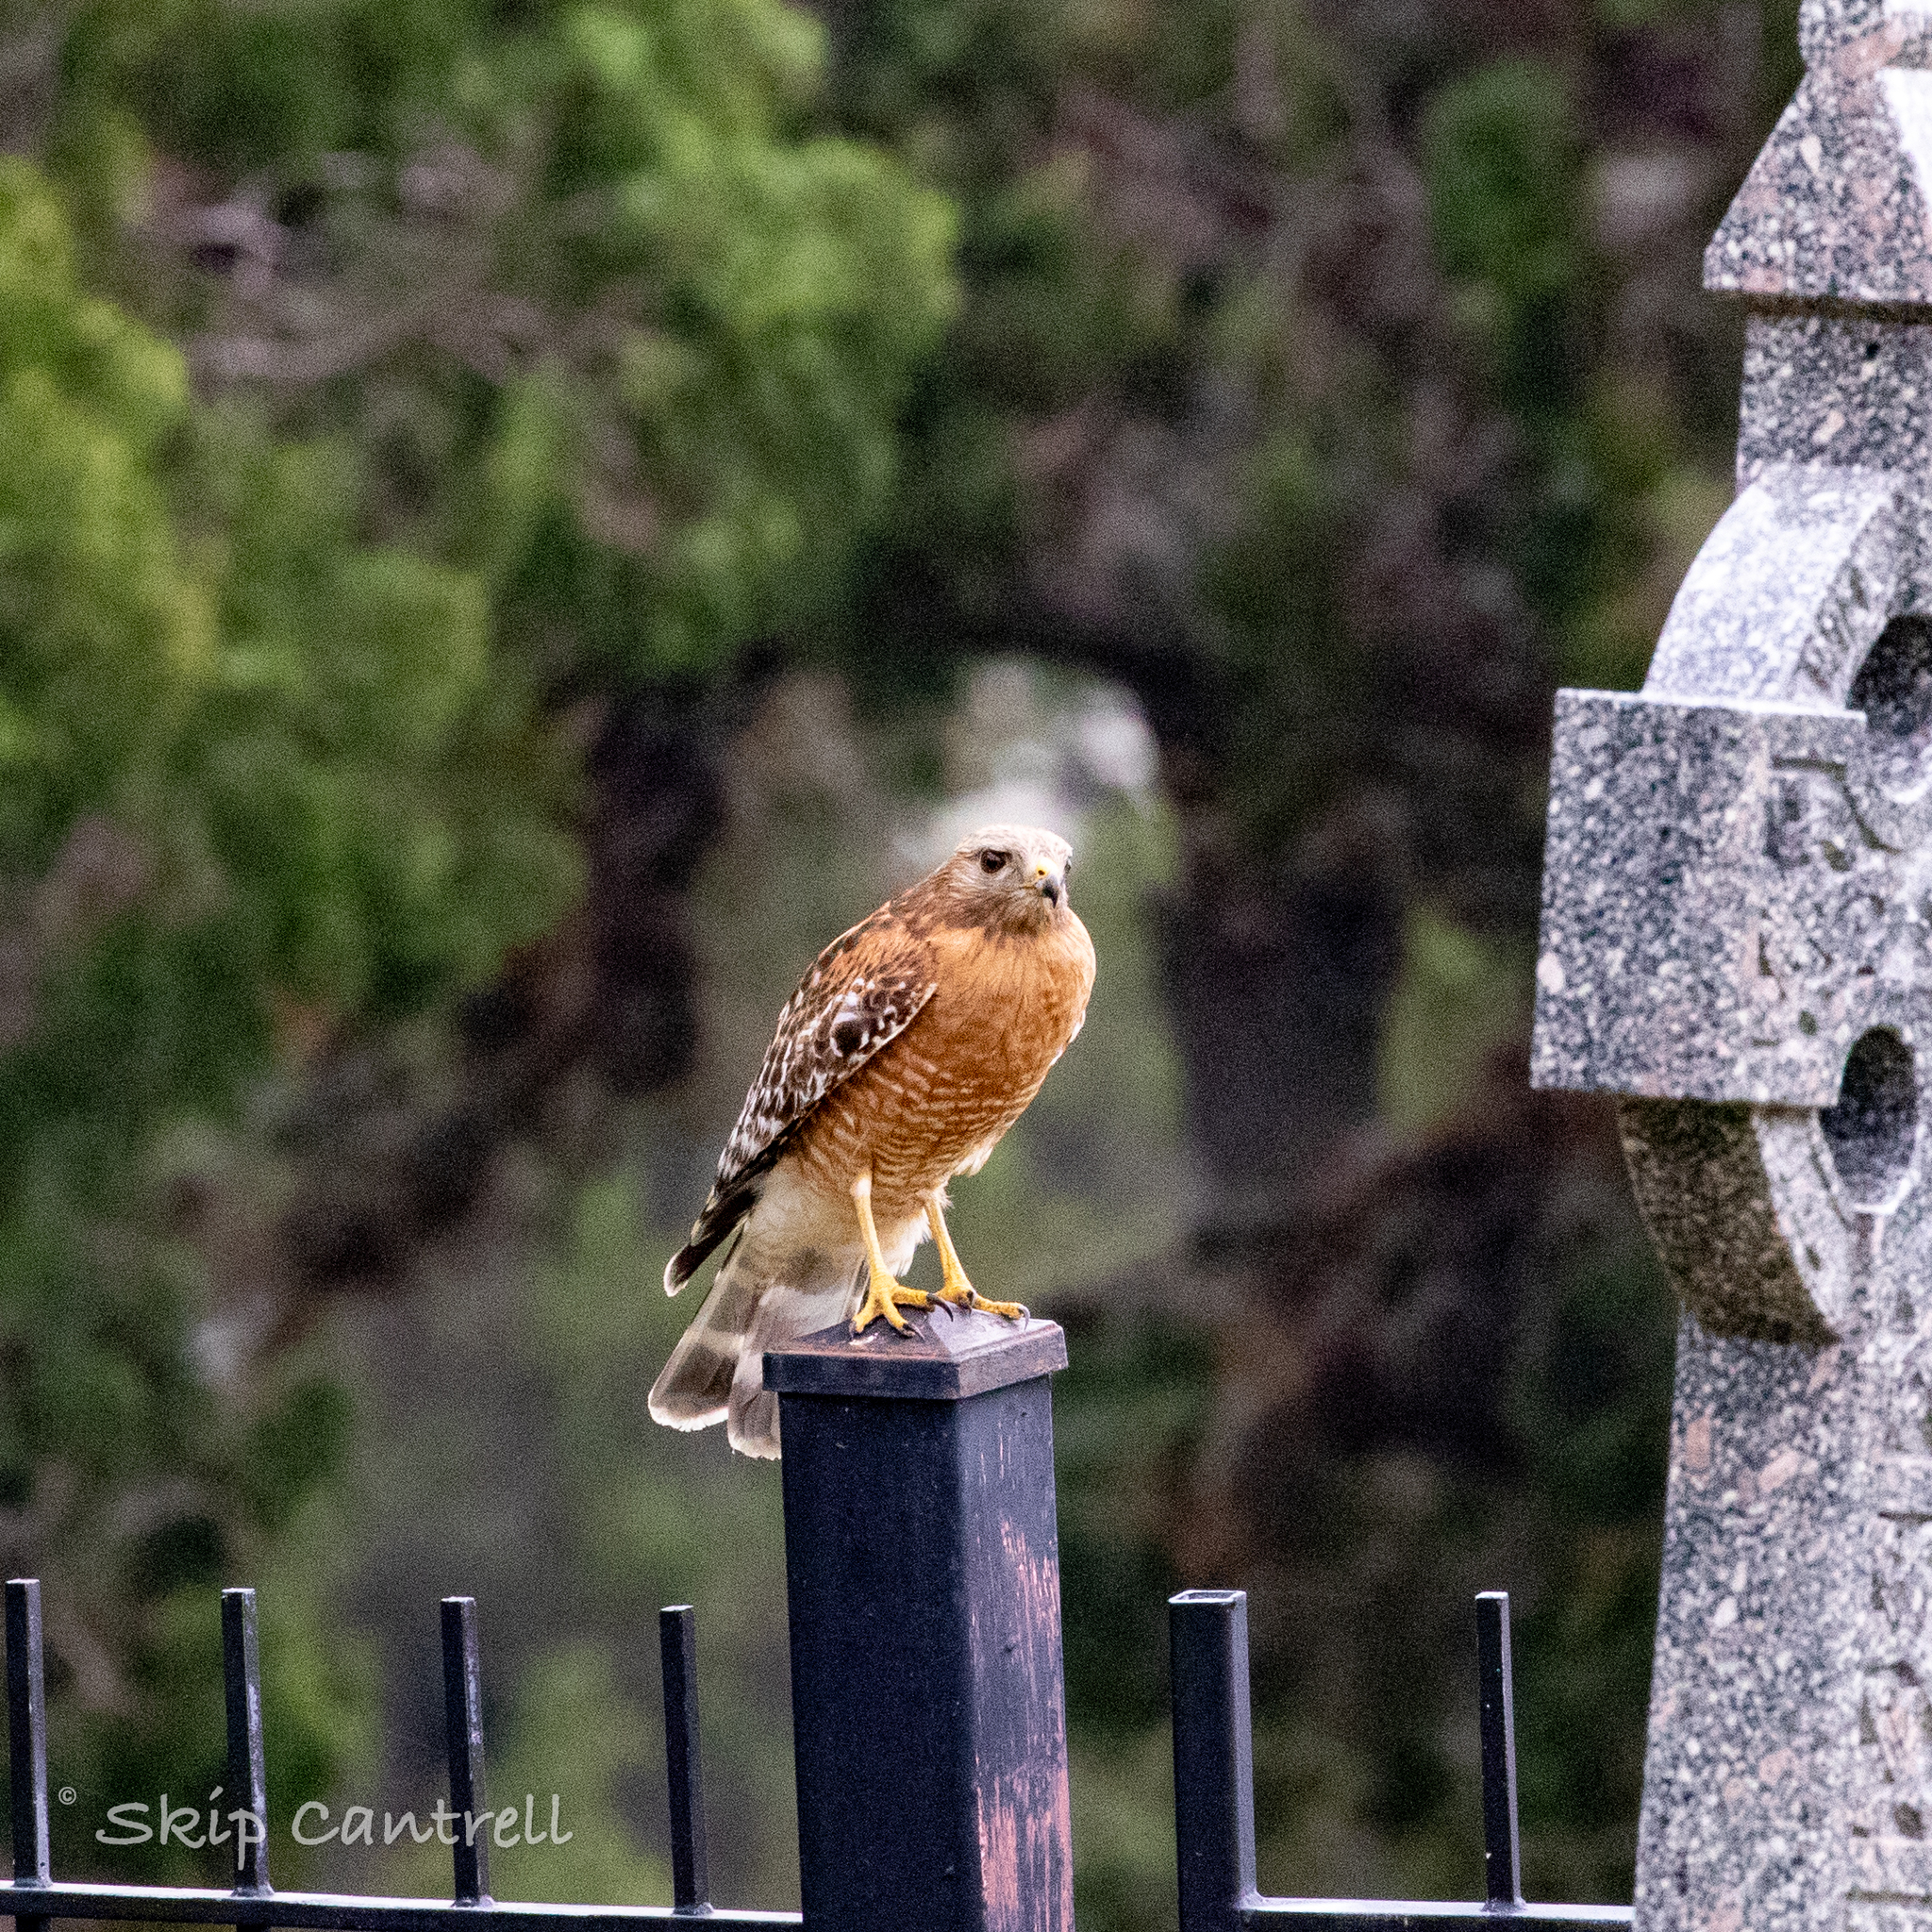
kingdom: Animalia
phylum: Chordata
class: Aves
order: Accipitriformes
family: Accipitridae
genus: Buteo
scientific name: Buteo lineatus
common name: Red-shouldered hawk
